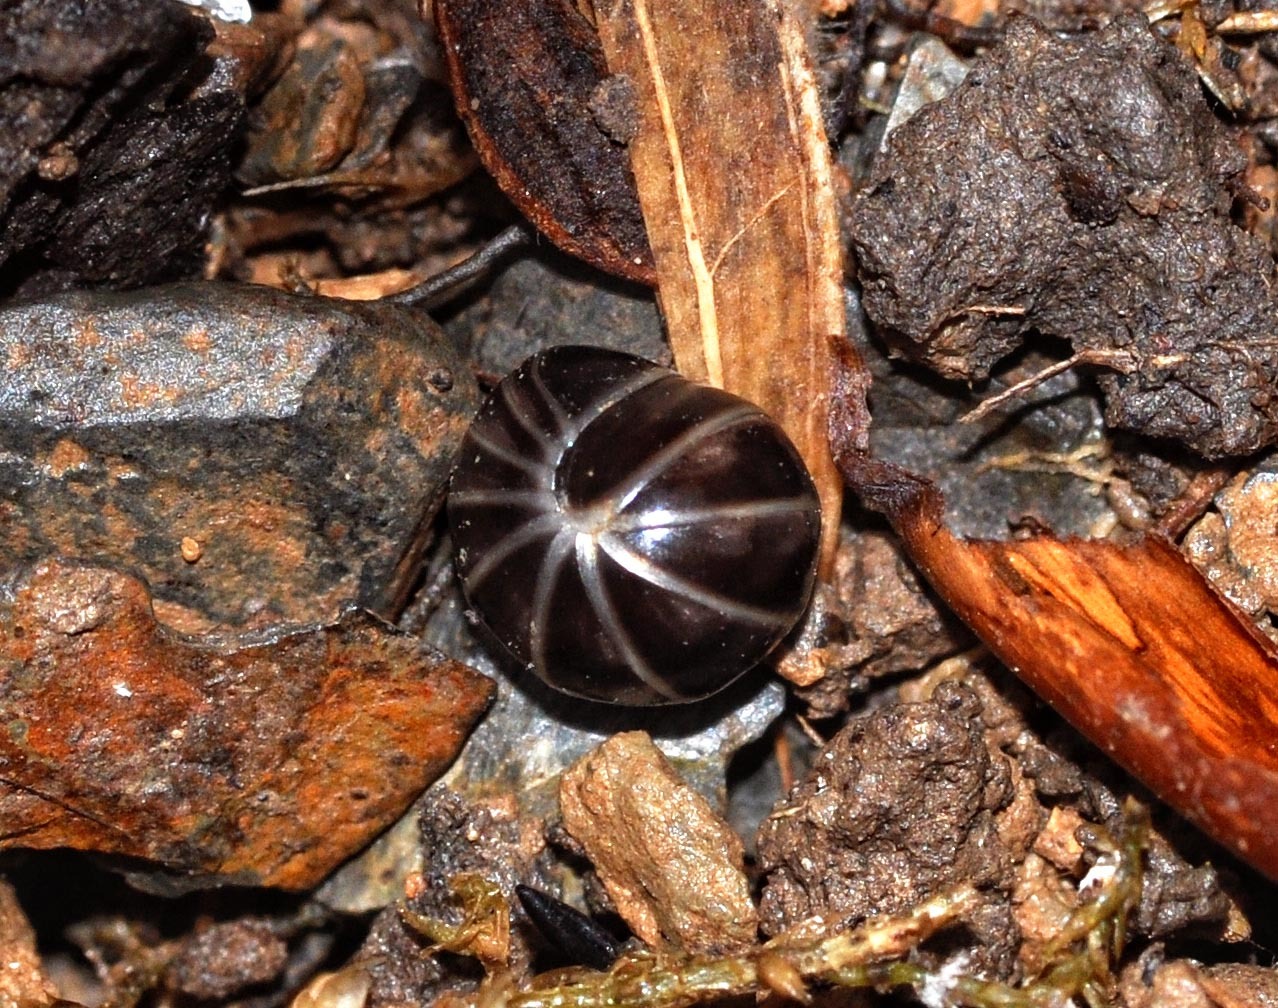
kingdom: Animalia
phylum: Arthropoda
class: Diplopoda
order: Glomerida
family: Glomeridae
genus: Glomeris
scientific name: Glomeris marginata
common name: Bordered pill millipede
